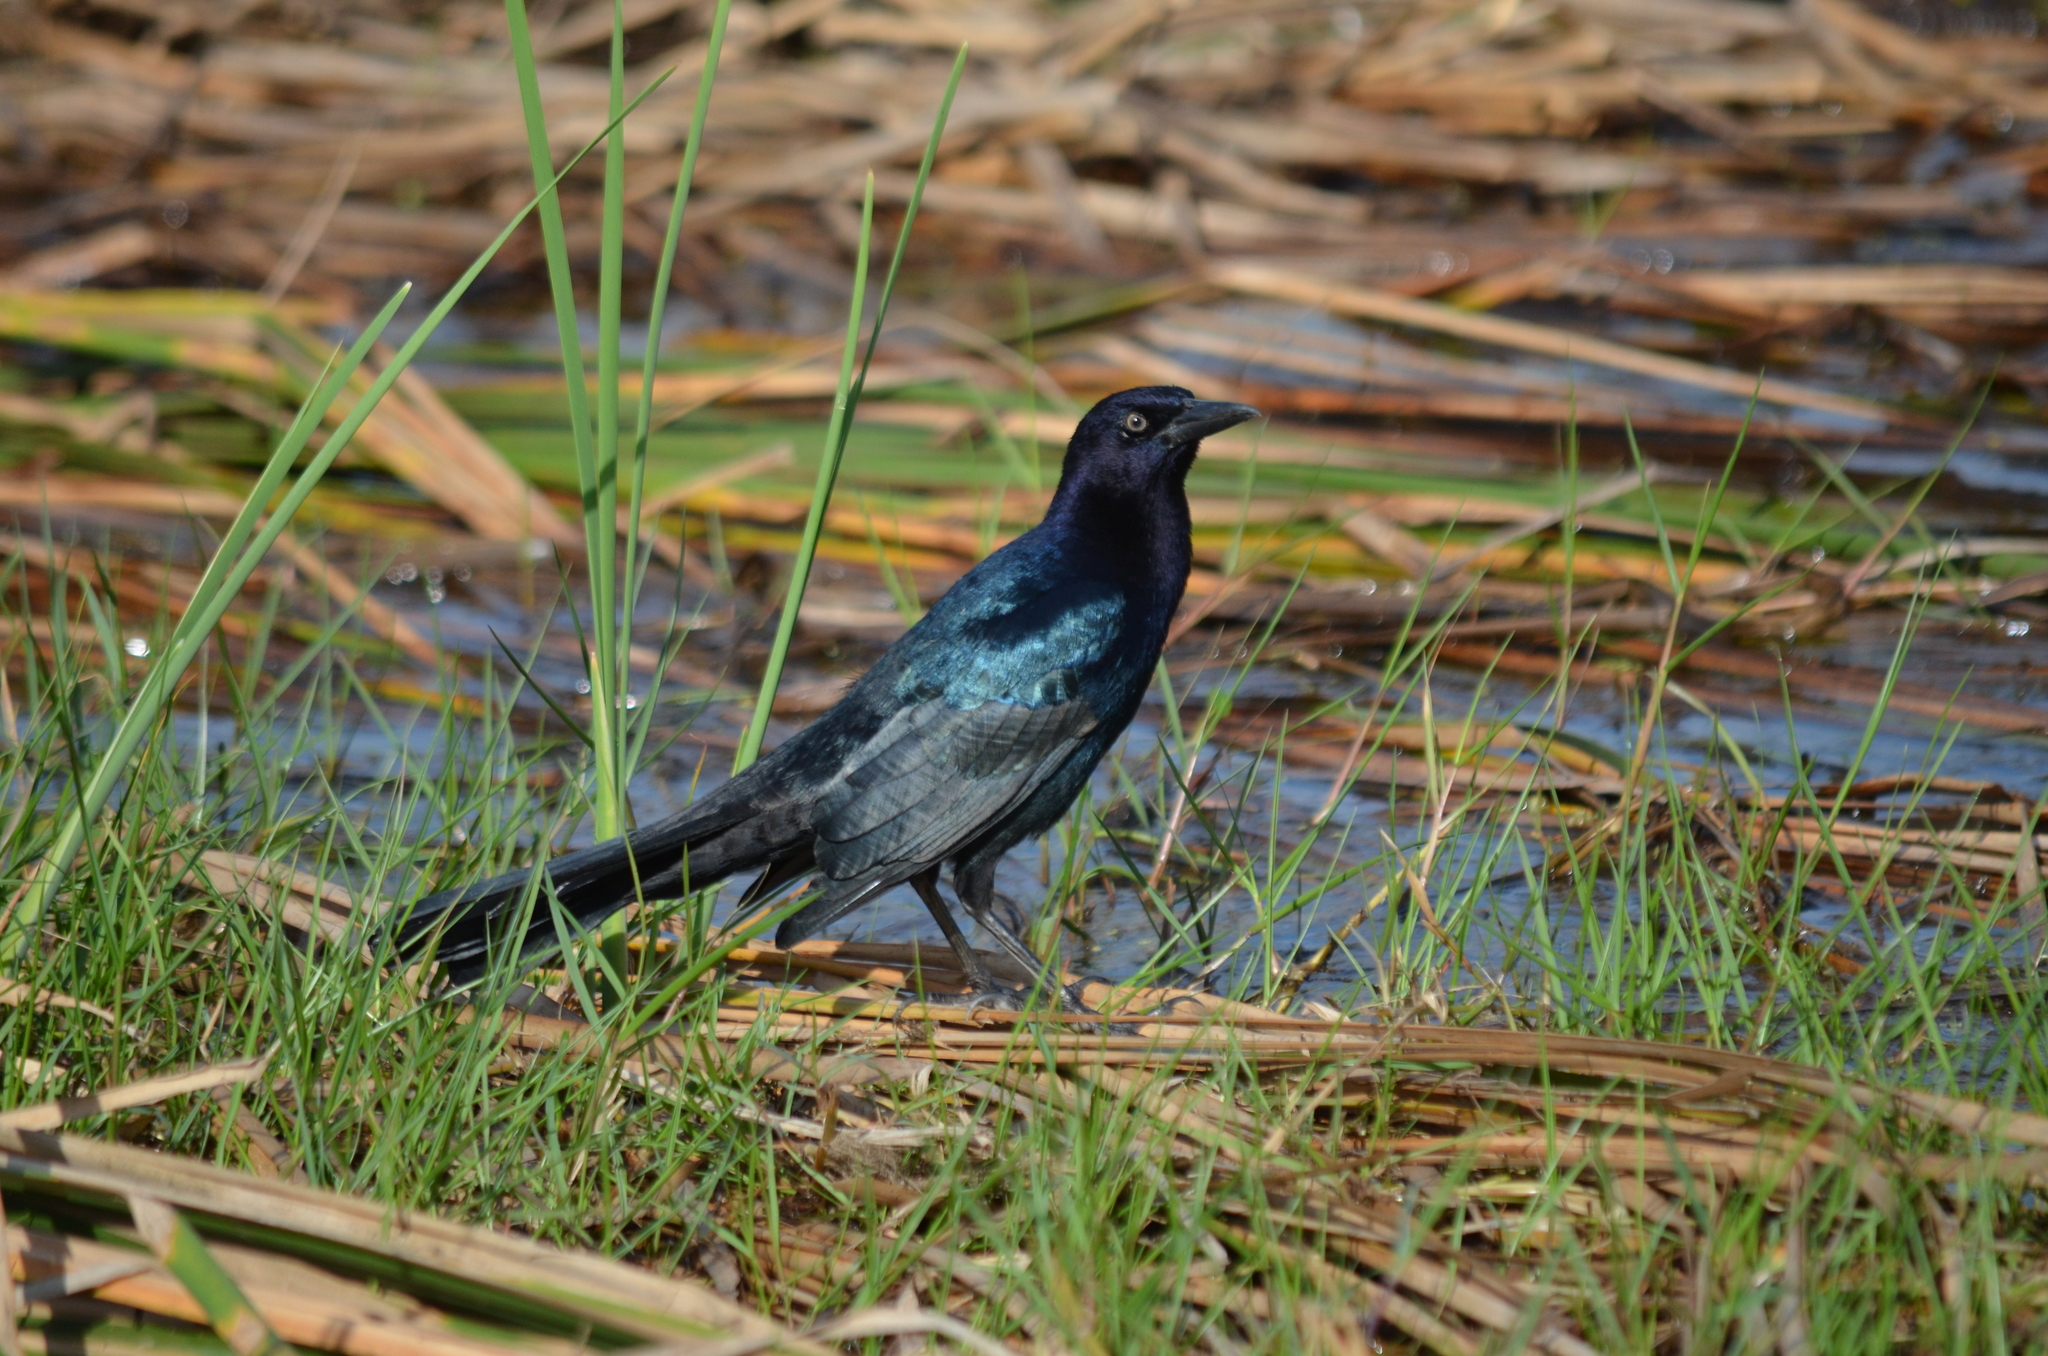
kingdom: Animalia
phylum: Chordata
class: Aves
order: Passeriformes
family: Icteridae
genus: Quiscalus
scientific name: Quiscalus major
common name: Boat-tailed grackle
